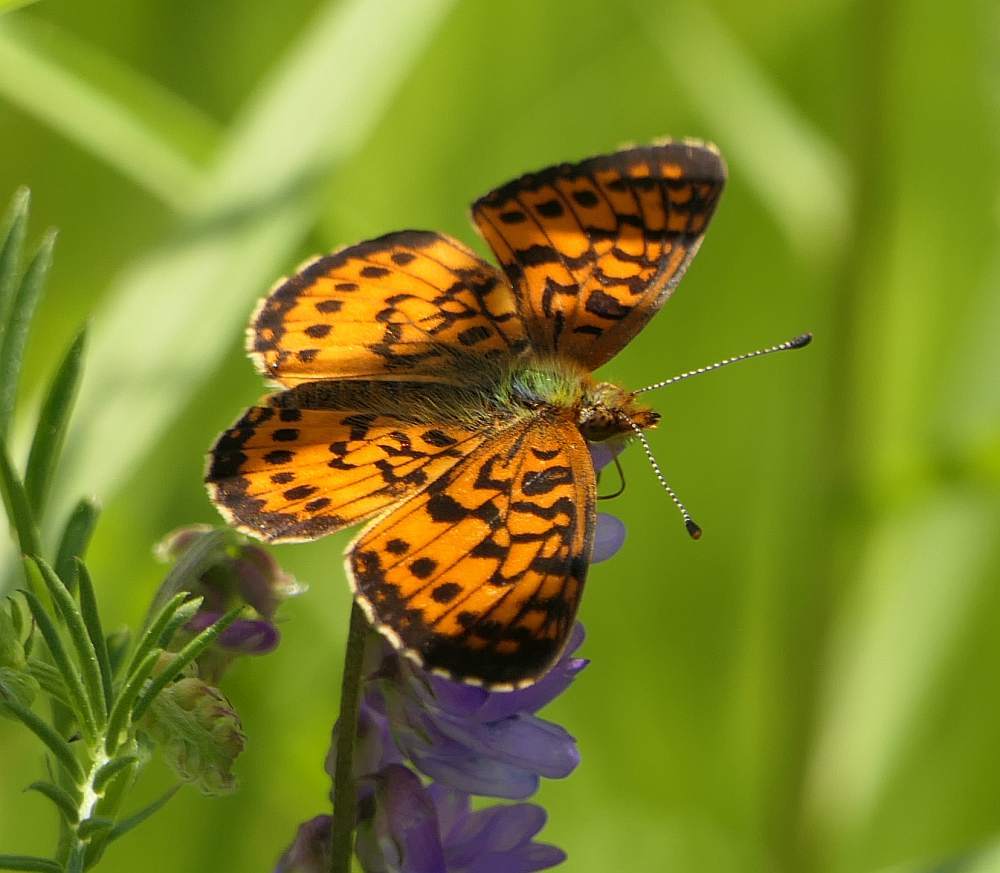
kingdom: Animalia
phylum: Arthropoda
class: Insecta
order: Lepidoptera
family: Nymphalidae
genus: Boloria
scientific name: Boloria
